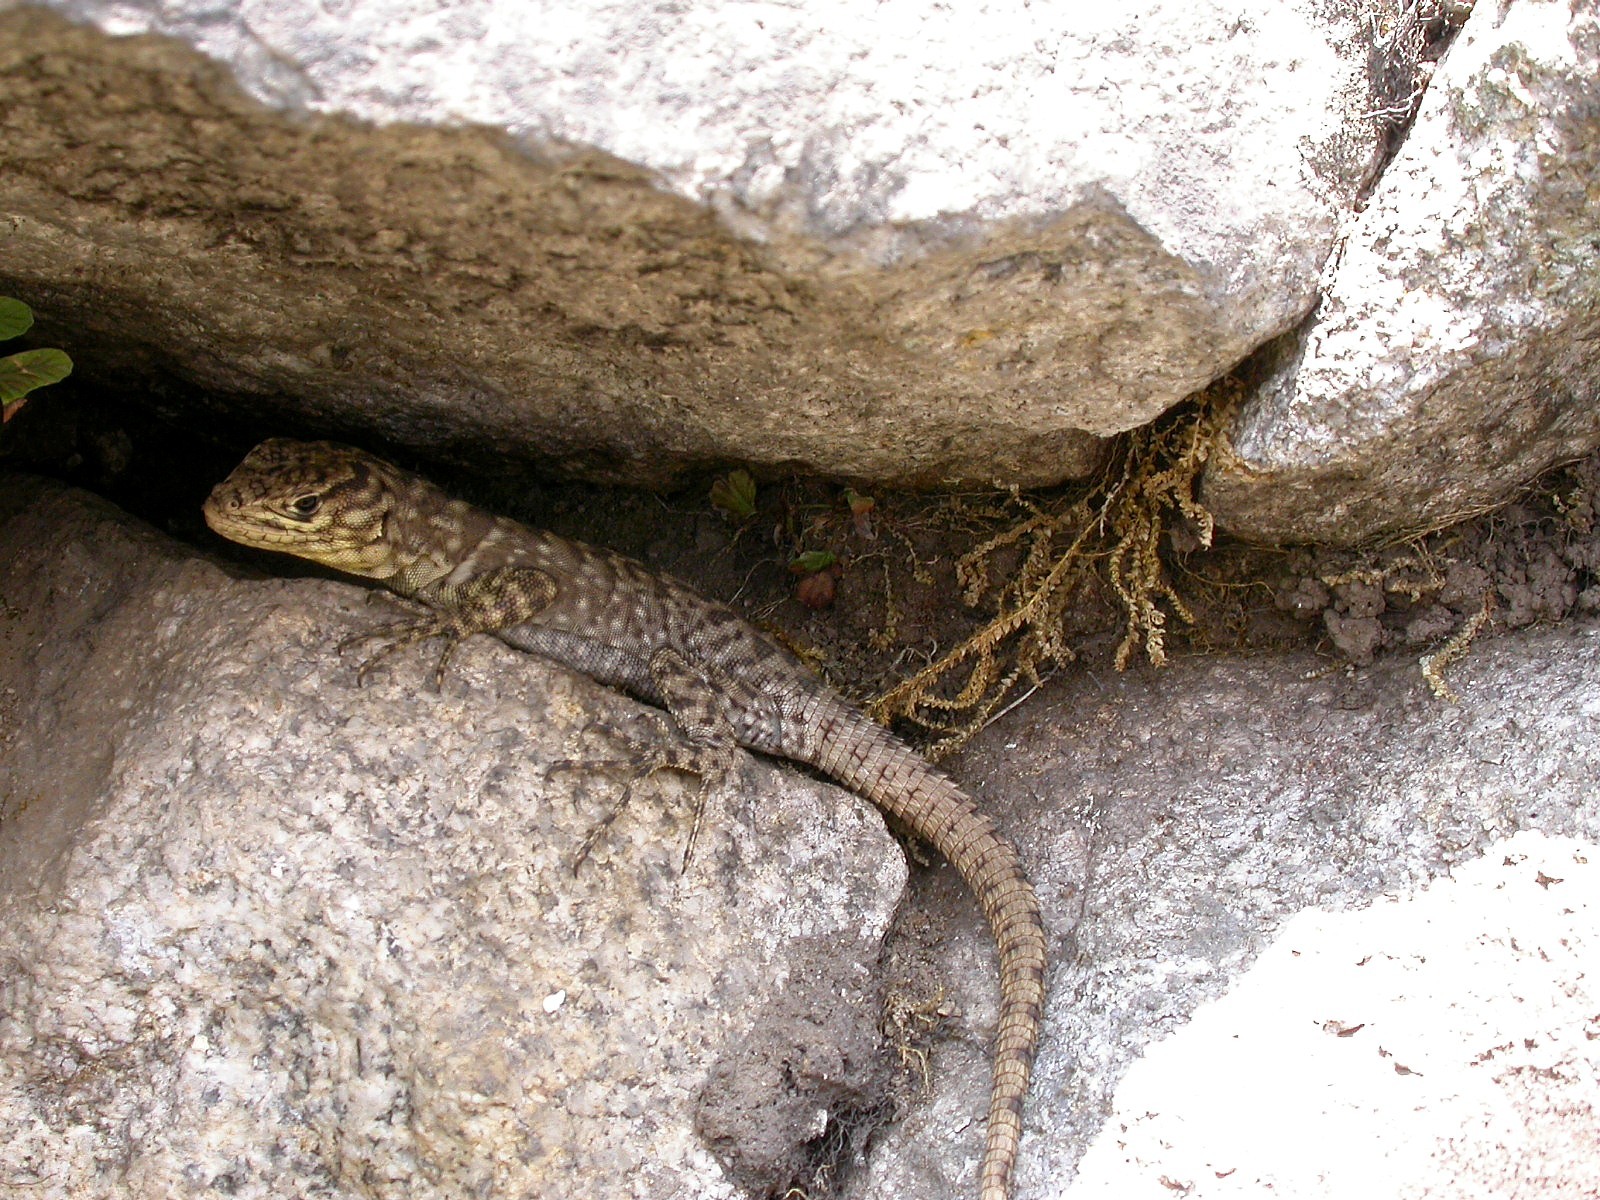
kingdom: Animalia
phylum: Chordata
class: Squamata
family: Tropiduridae
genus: Stenocercus
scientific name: Stenocercus crassicaudatus
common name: Spiny whorltail iguana
